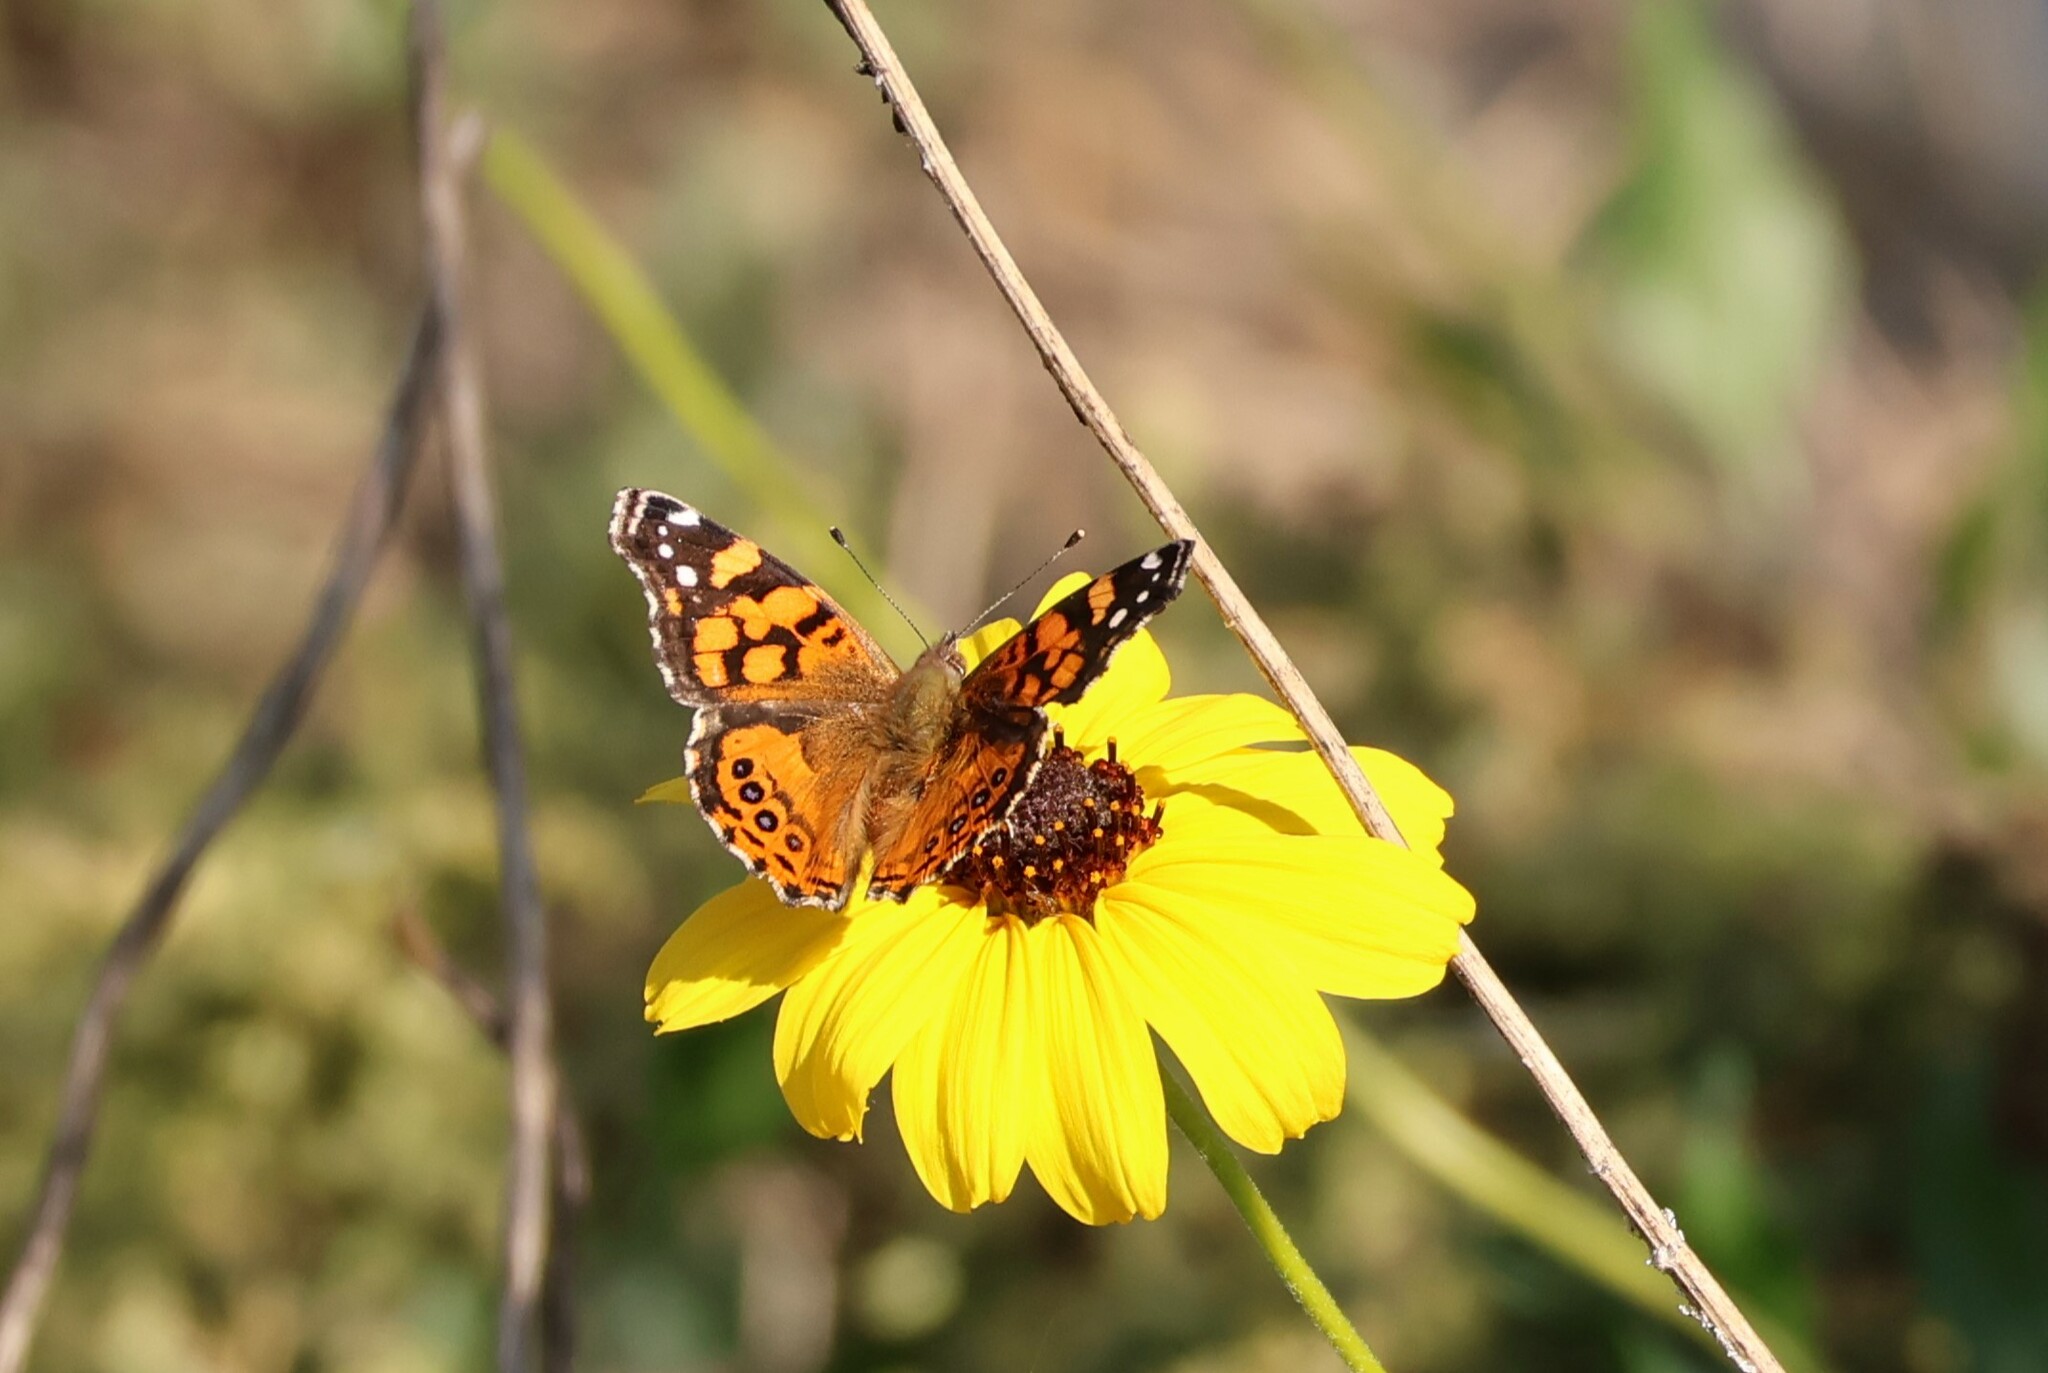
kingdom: Animalia
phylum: Arthropoda
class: Insecta
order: Lepidoptera
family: Nymphalidae
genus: Vanessa
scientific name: Vanessa annabella
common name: West coast lady
